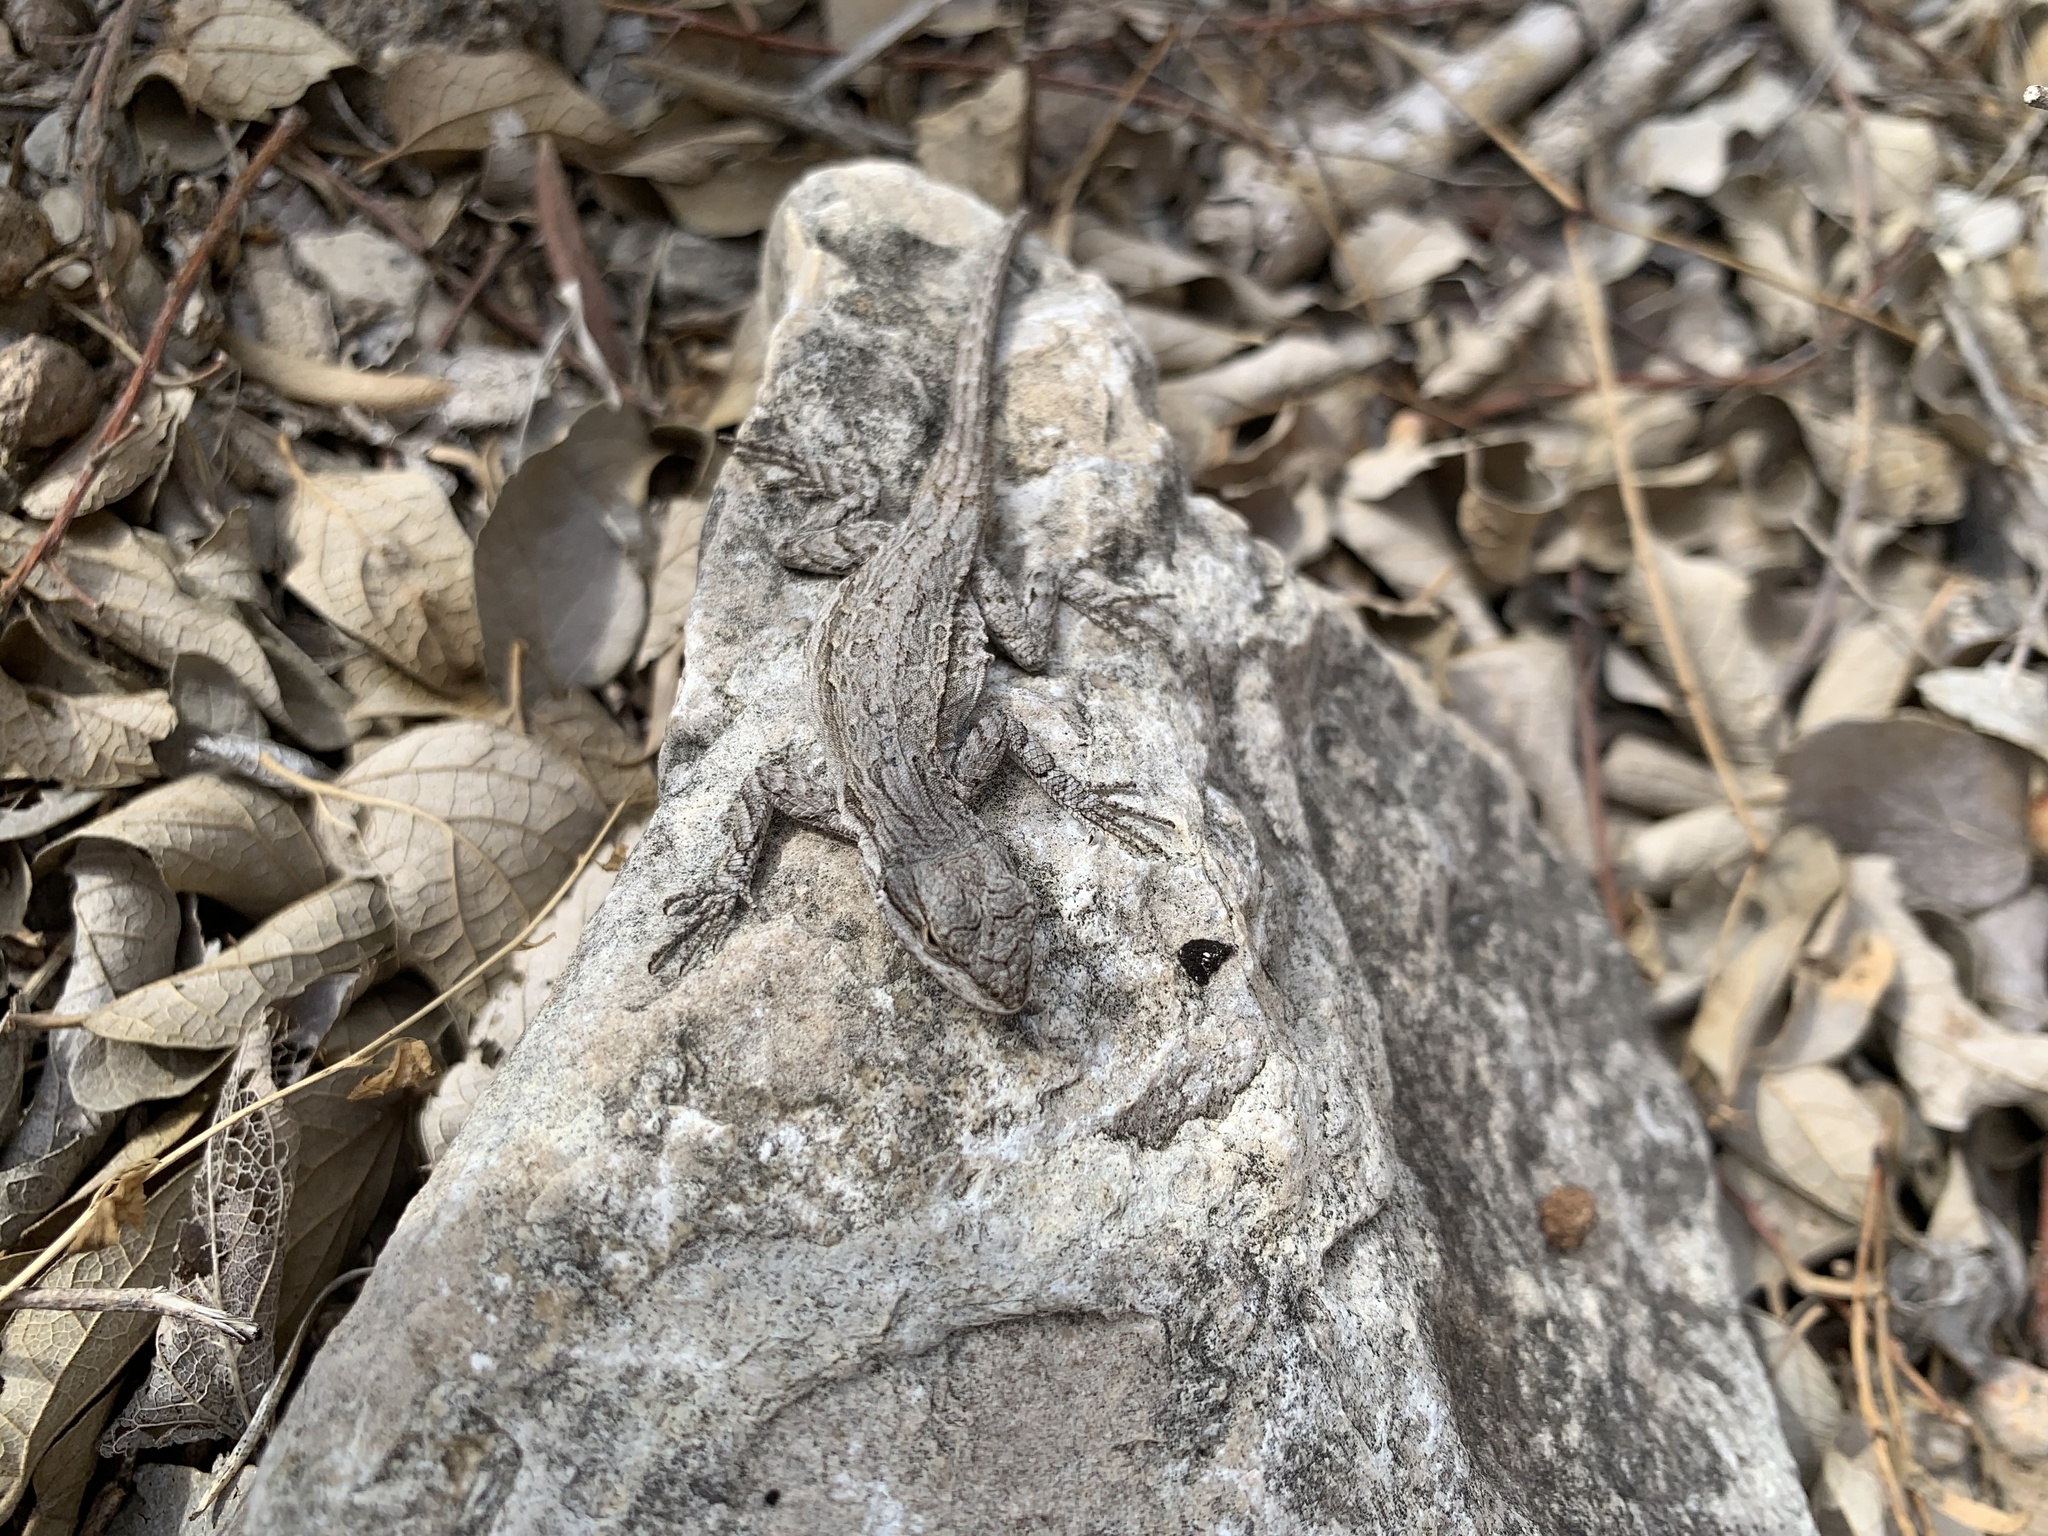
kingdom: Animalia
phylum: Chordata
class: Squamata
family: Phrynosomatidae
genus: Urosaurus
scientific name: Urosaurus ornatus
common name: Ornate tree lizard
